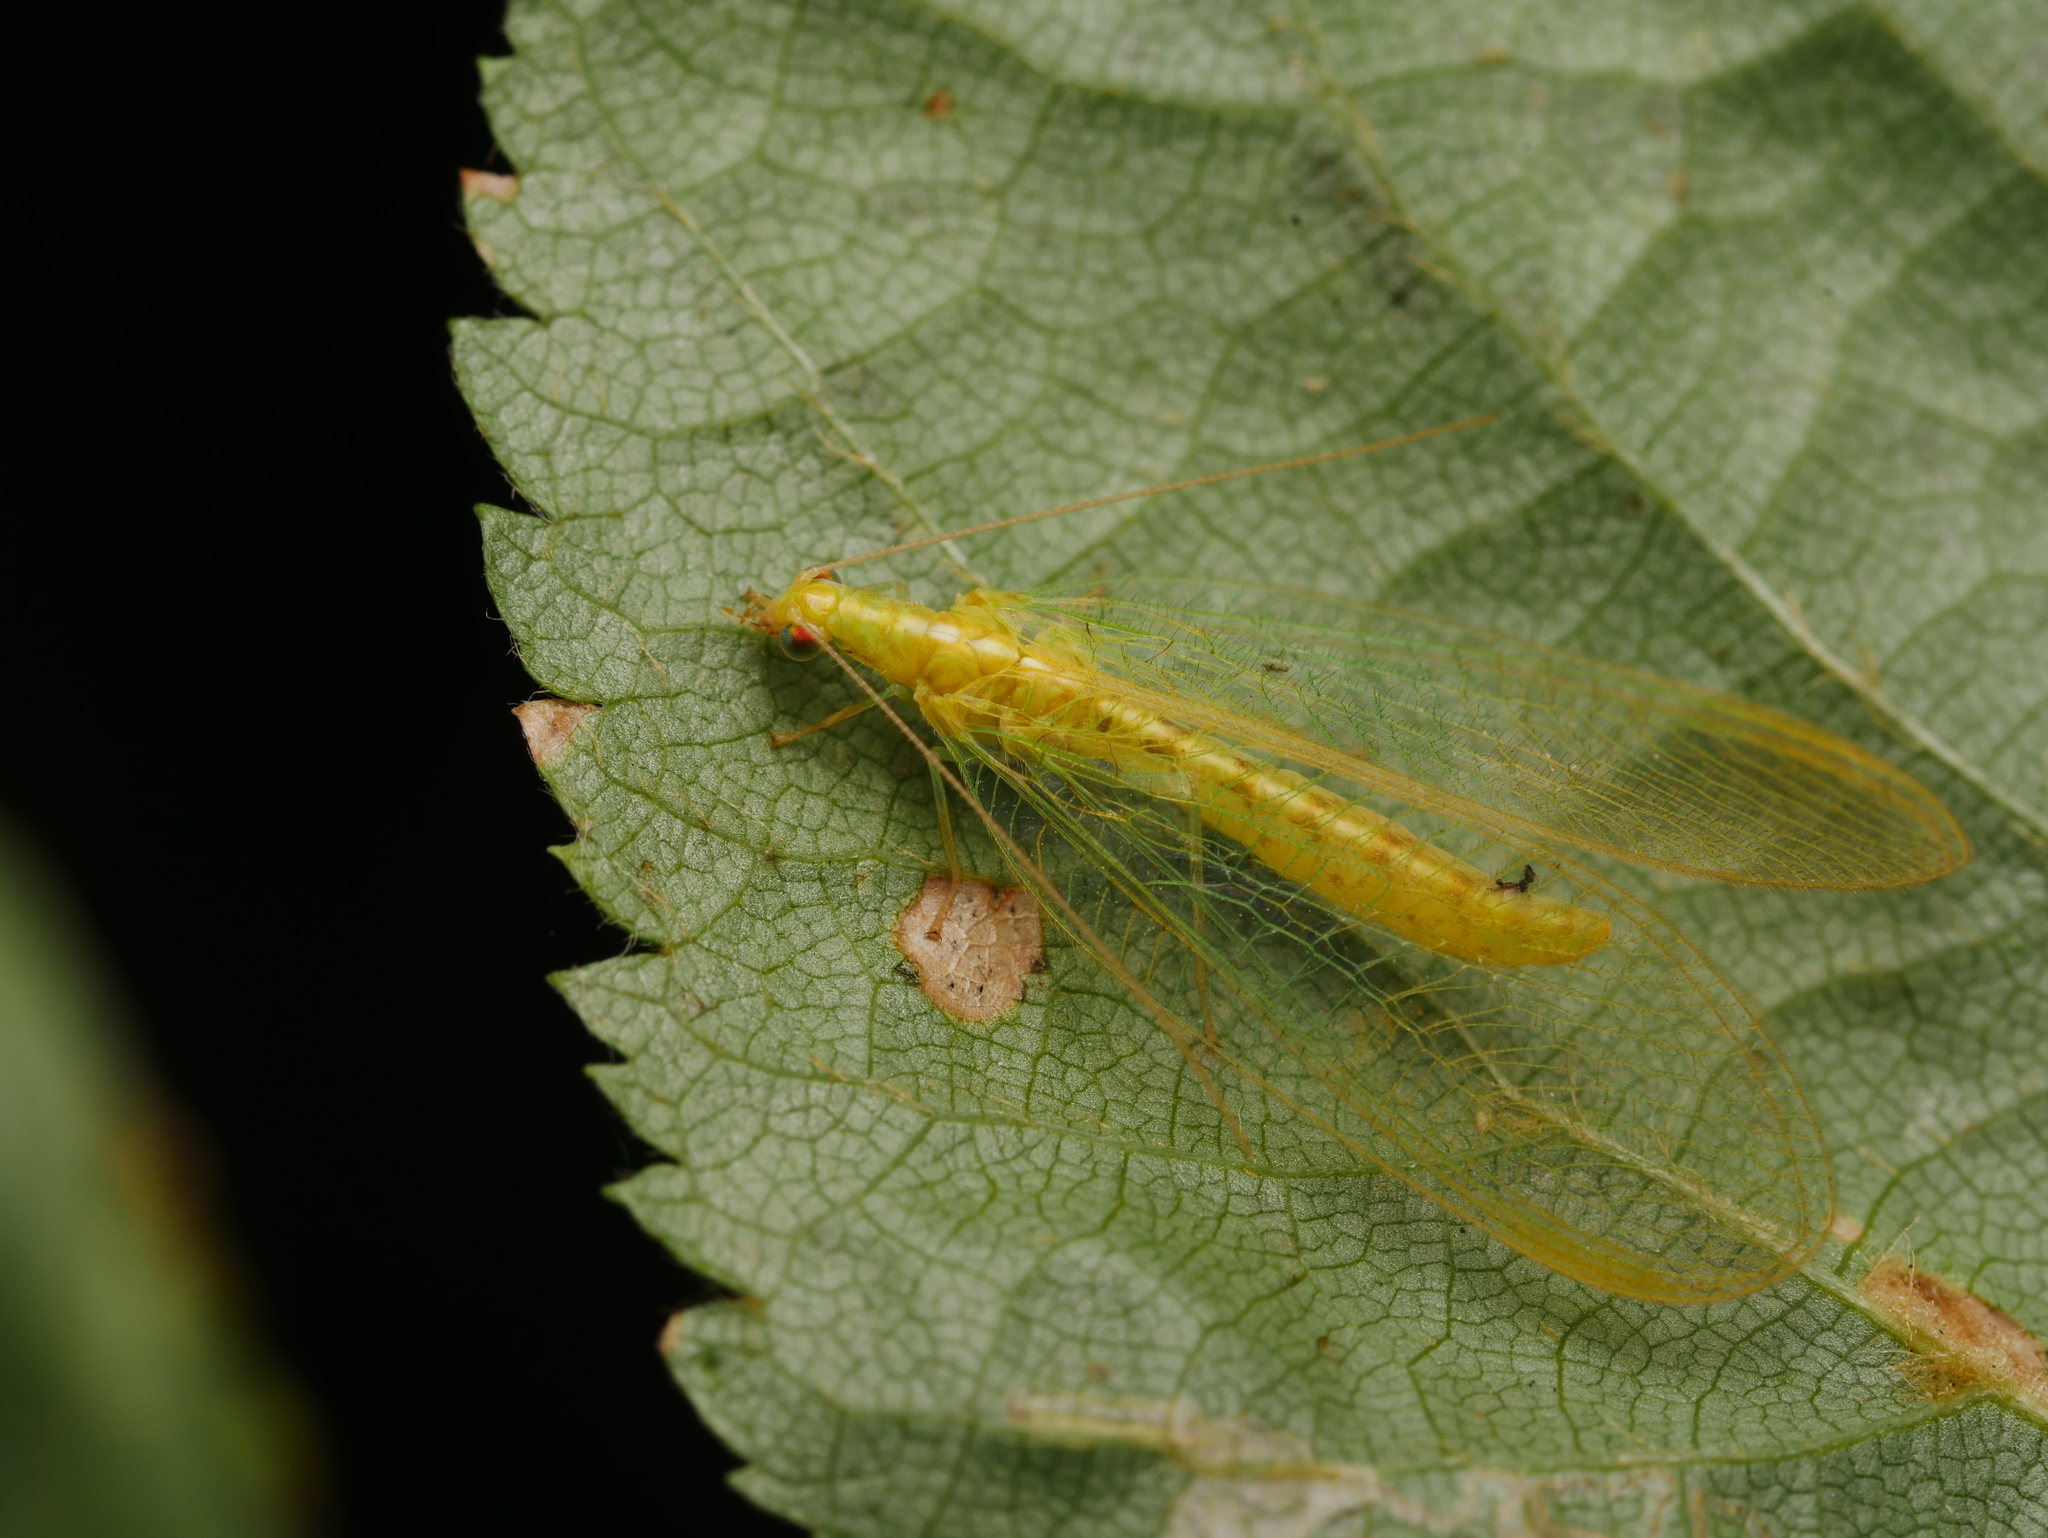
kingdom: Animalia
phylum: Arthropoda
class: Insecta
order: Neuroptera
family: Chrysopidae
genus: Chrysoperla
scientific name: Chrysoperla
